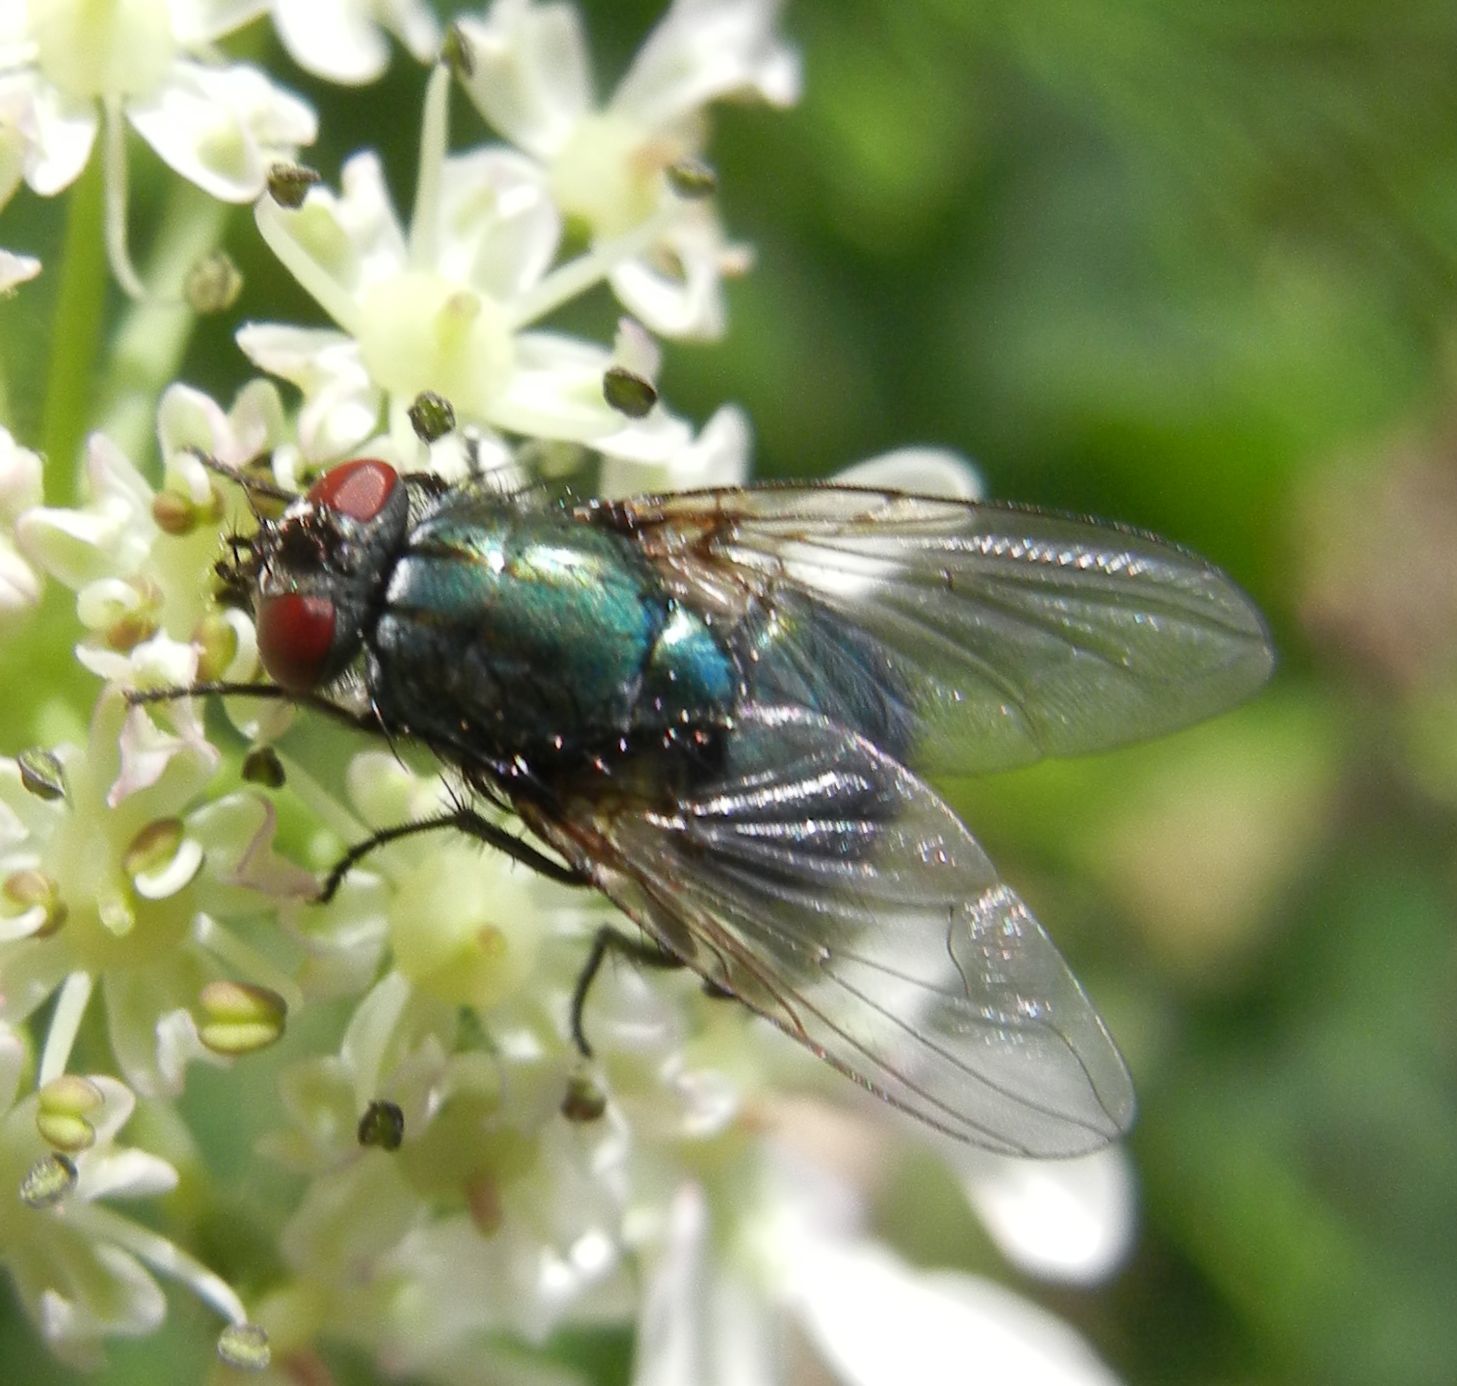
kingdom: Animalia
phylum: Arthropoda
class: Insecta
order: Diptera
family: Muscidae
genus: Dasyphora
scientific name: Dasyphora cyanella
